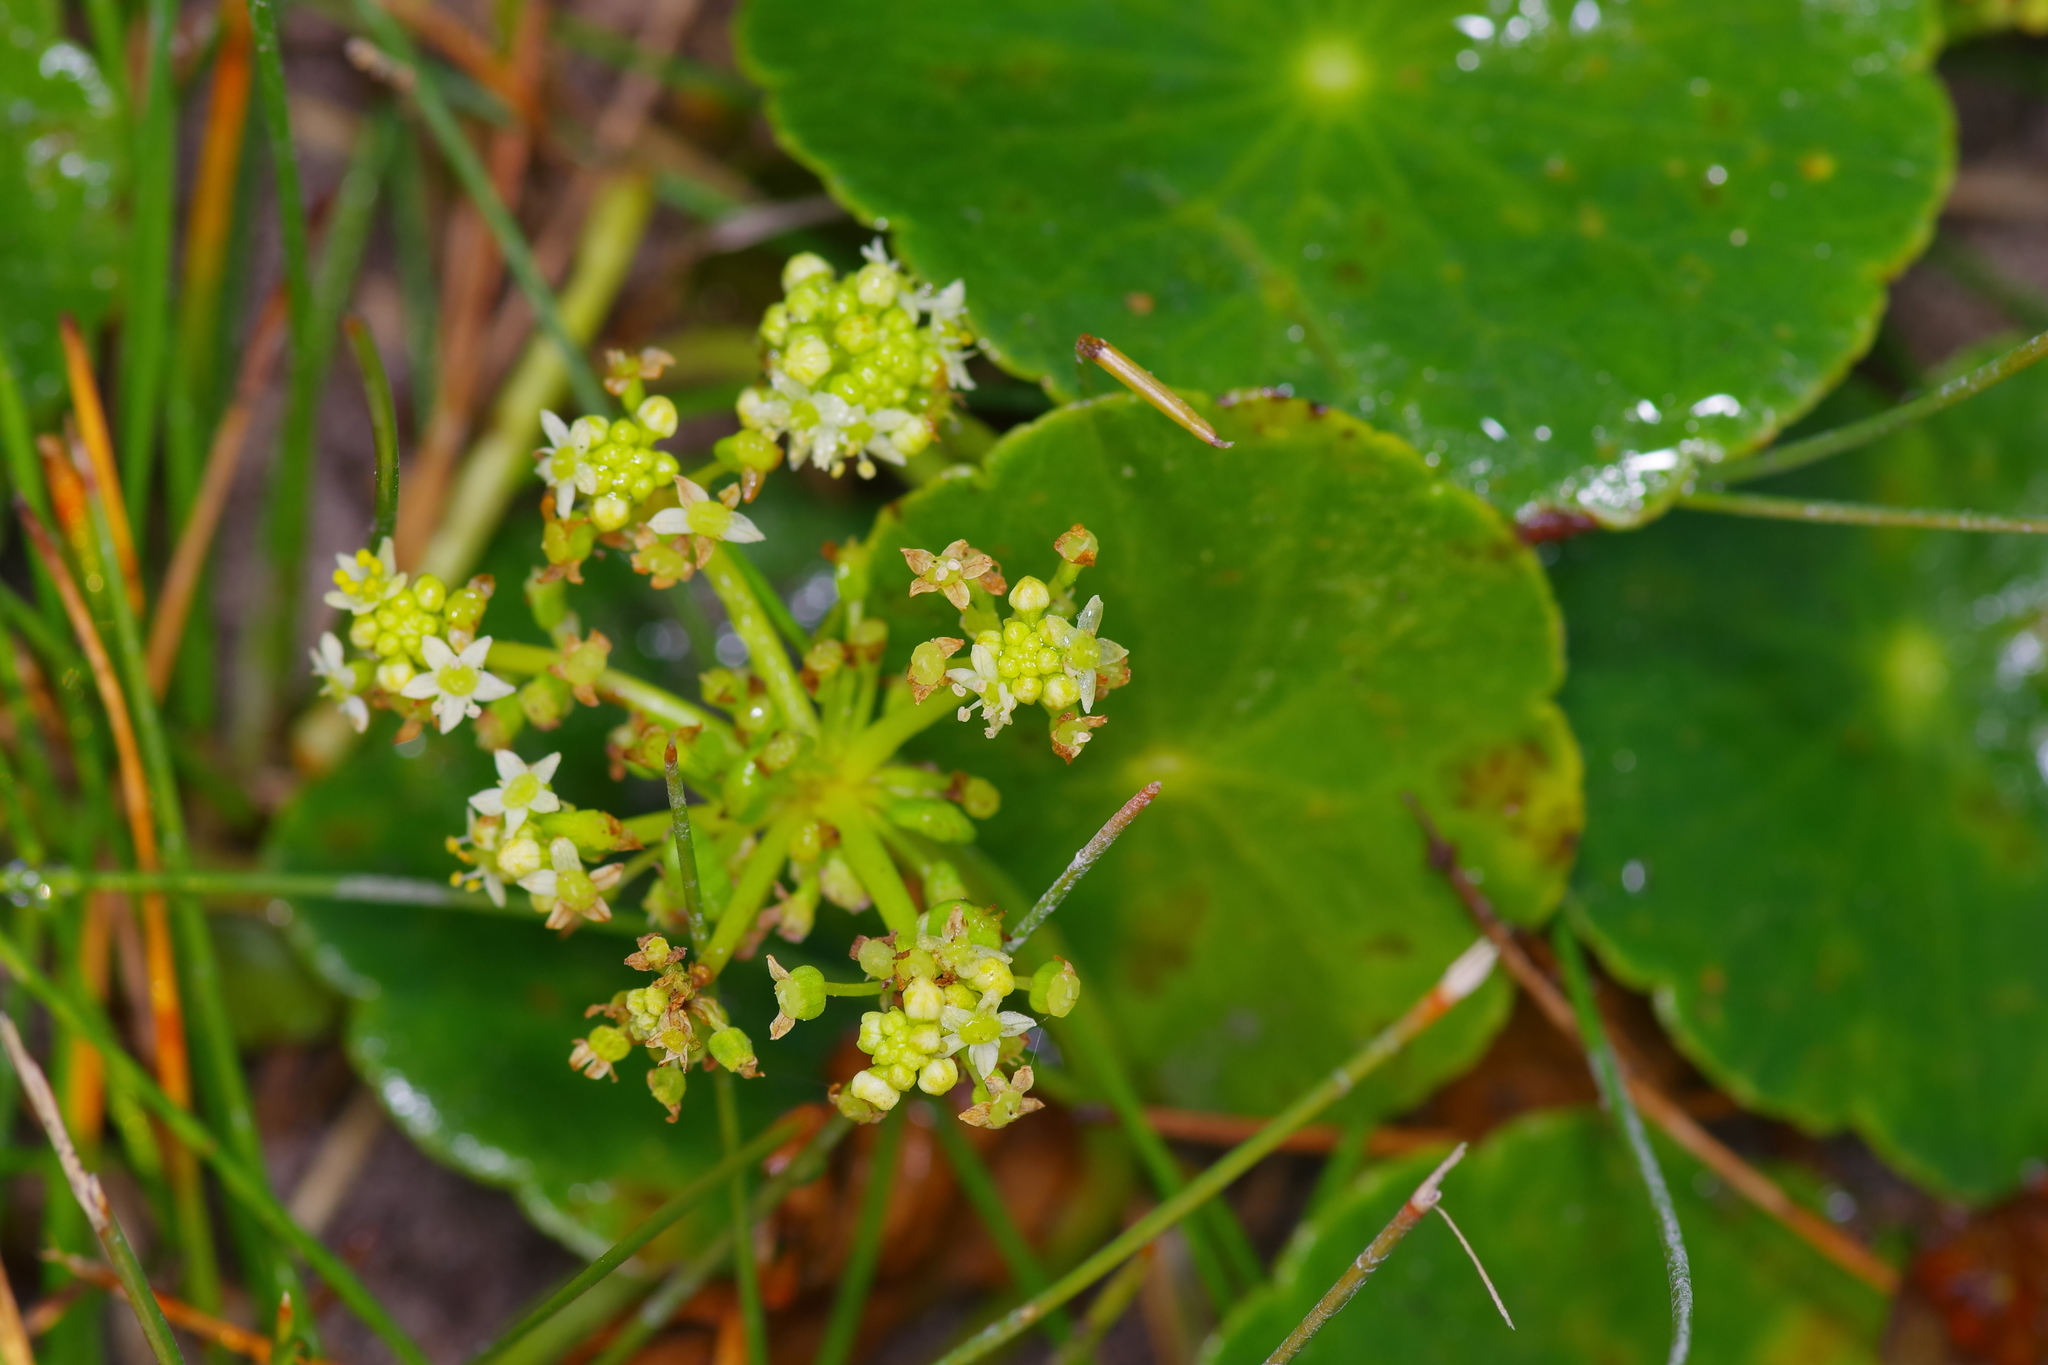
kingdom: Plantae
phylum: Tracheophyta
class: Magnoliopsida
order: Apiales
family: Araliaceae
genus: Hydrocotyle
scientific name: Hydrocotyle bonariensis
